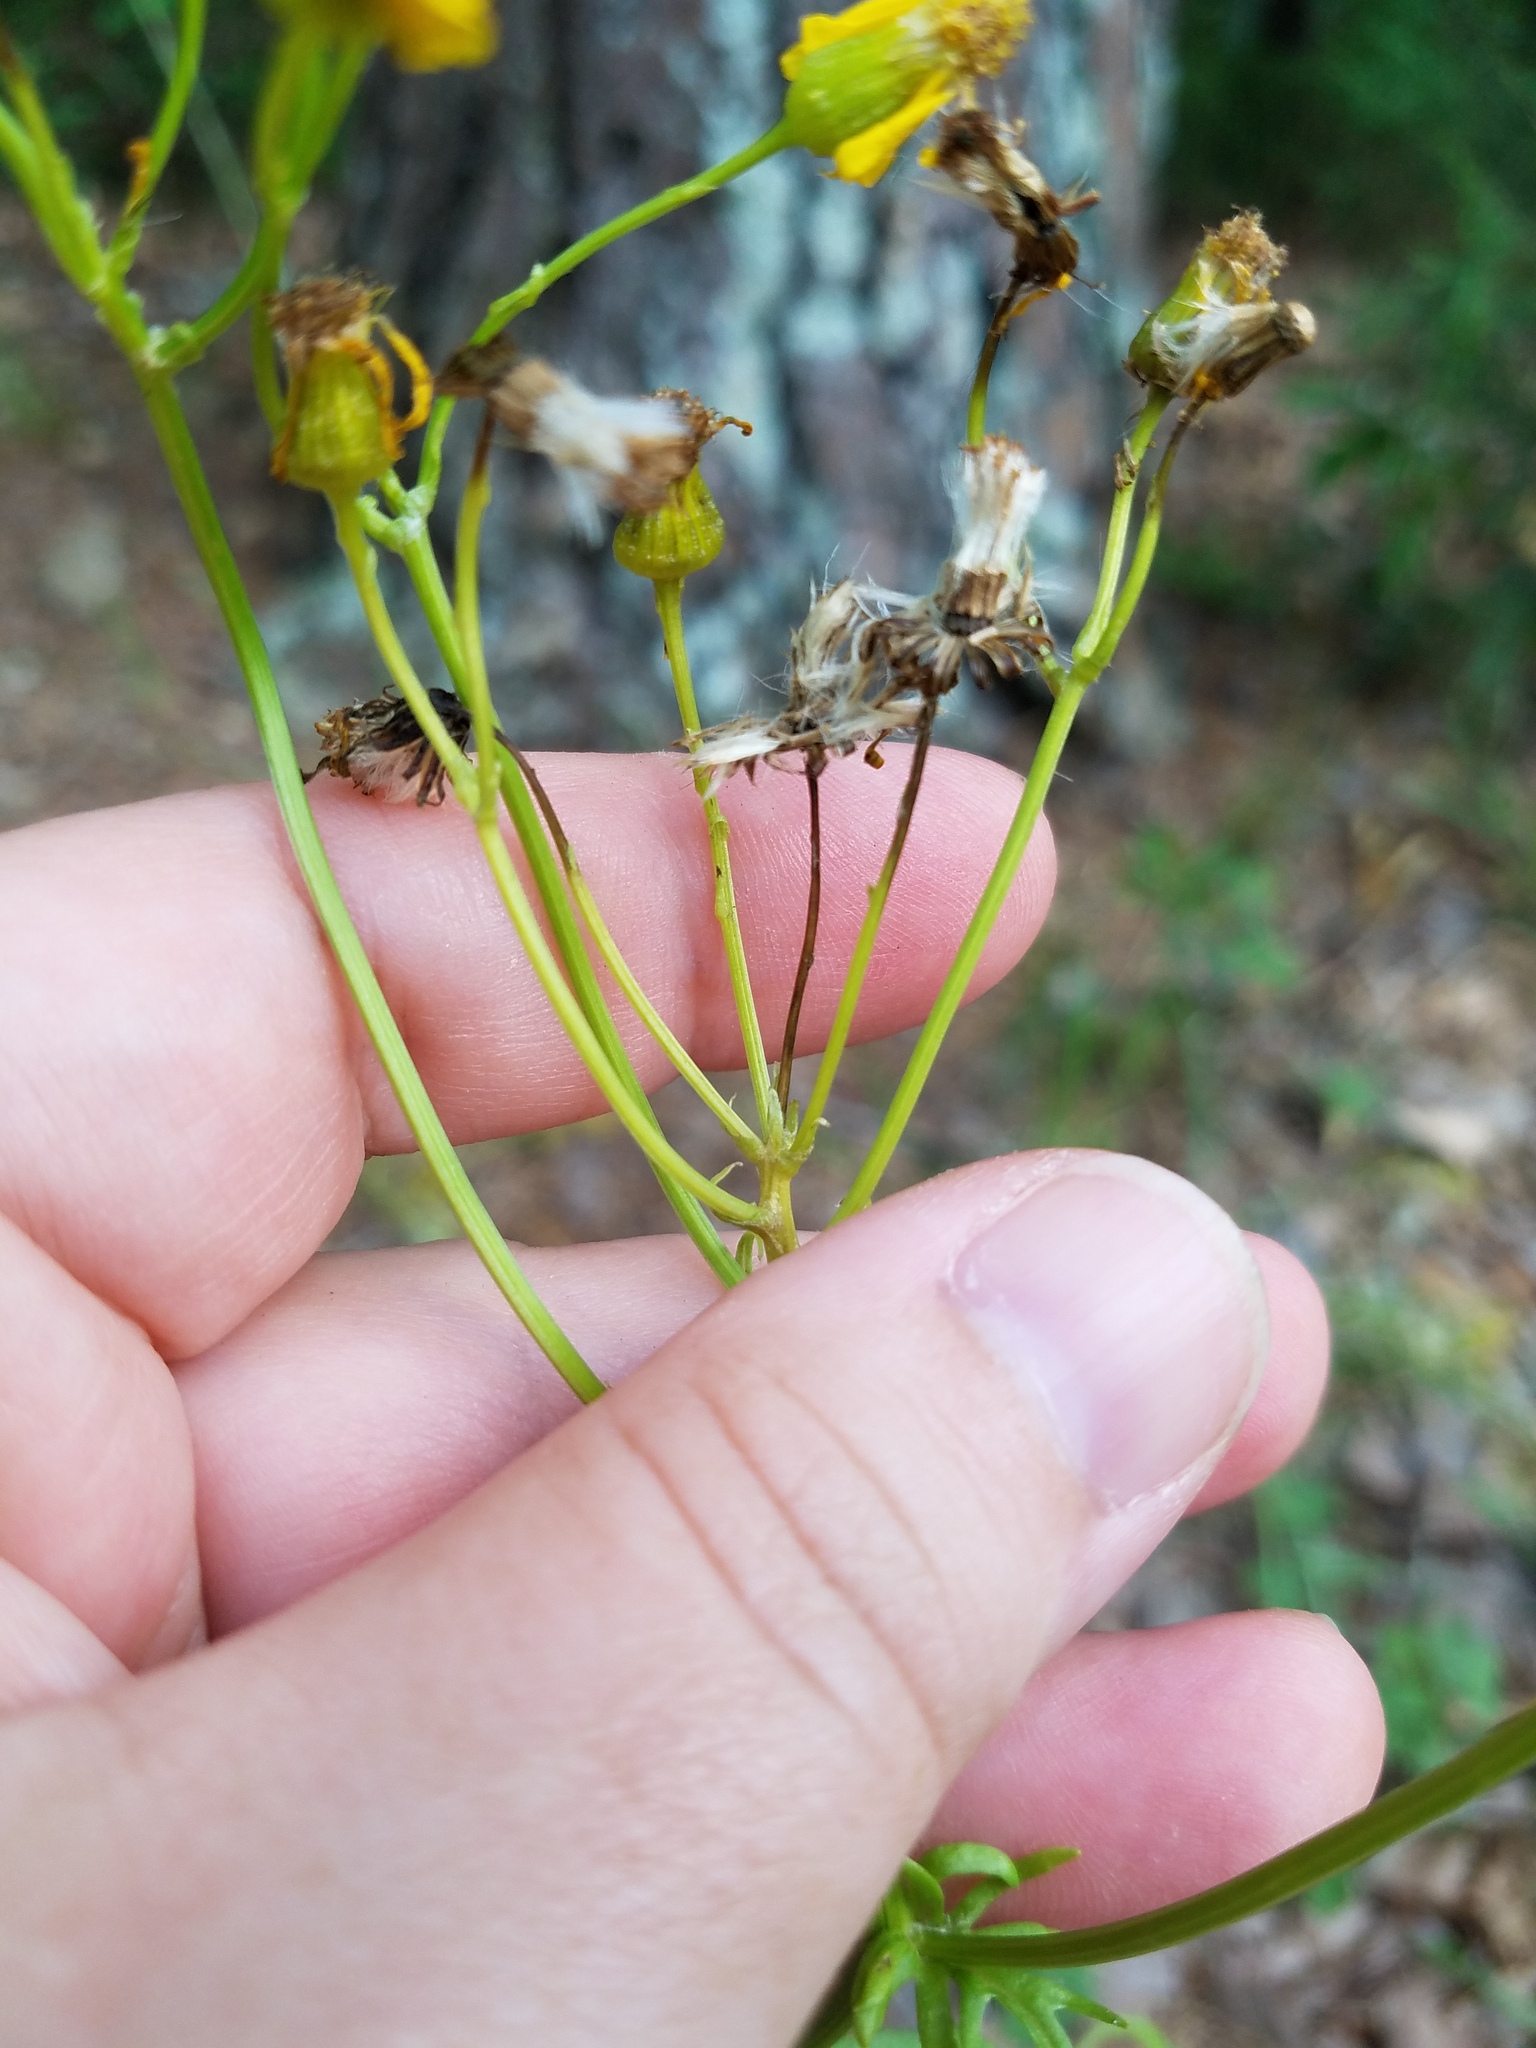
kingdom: Plantae
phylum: Tracheophyta
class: Magnoliopsida
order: Asterales
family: Asteraceae
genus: Packera
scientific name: Packera anonyma
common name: Small ragwort
